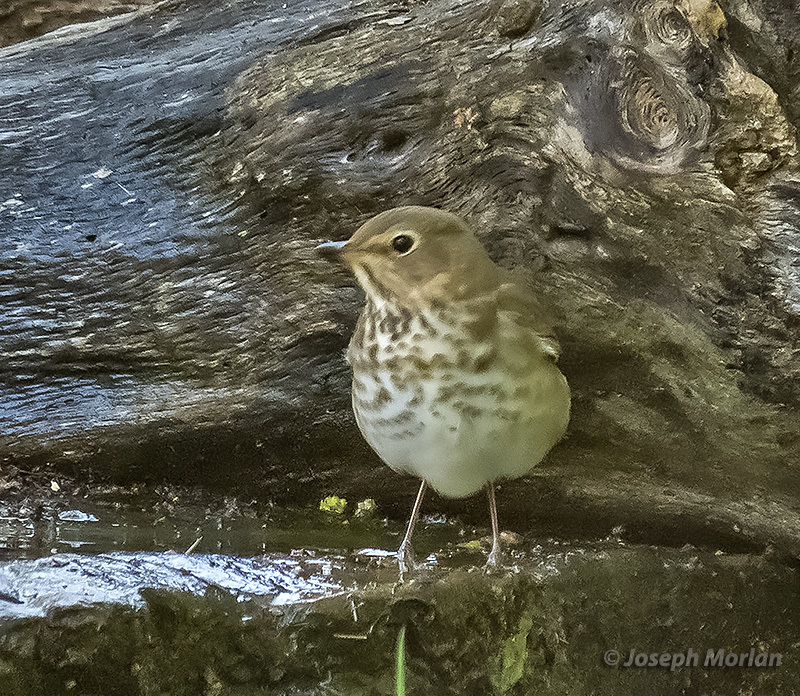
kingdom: Animalia
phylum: Chordata
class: Aves
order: Passeriformes
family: Turdidae
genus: Catharus
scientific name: Catharus ustulatus
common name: Swainson's thrush
